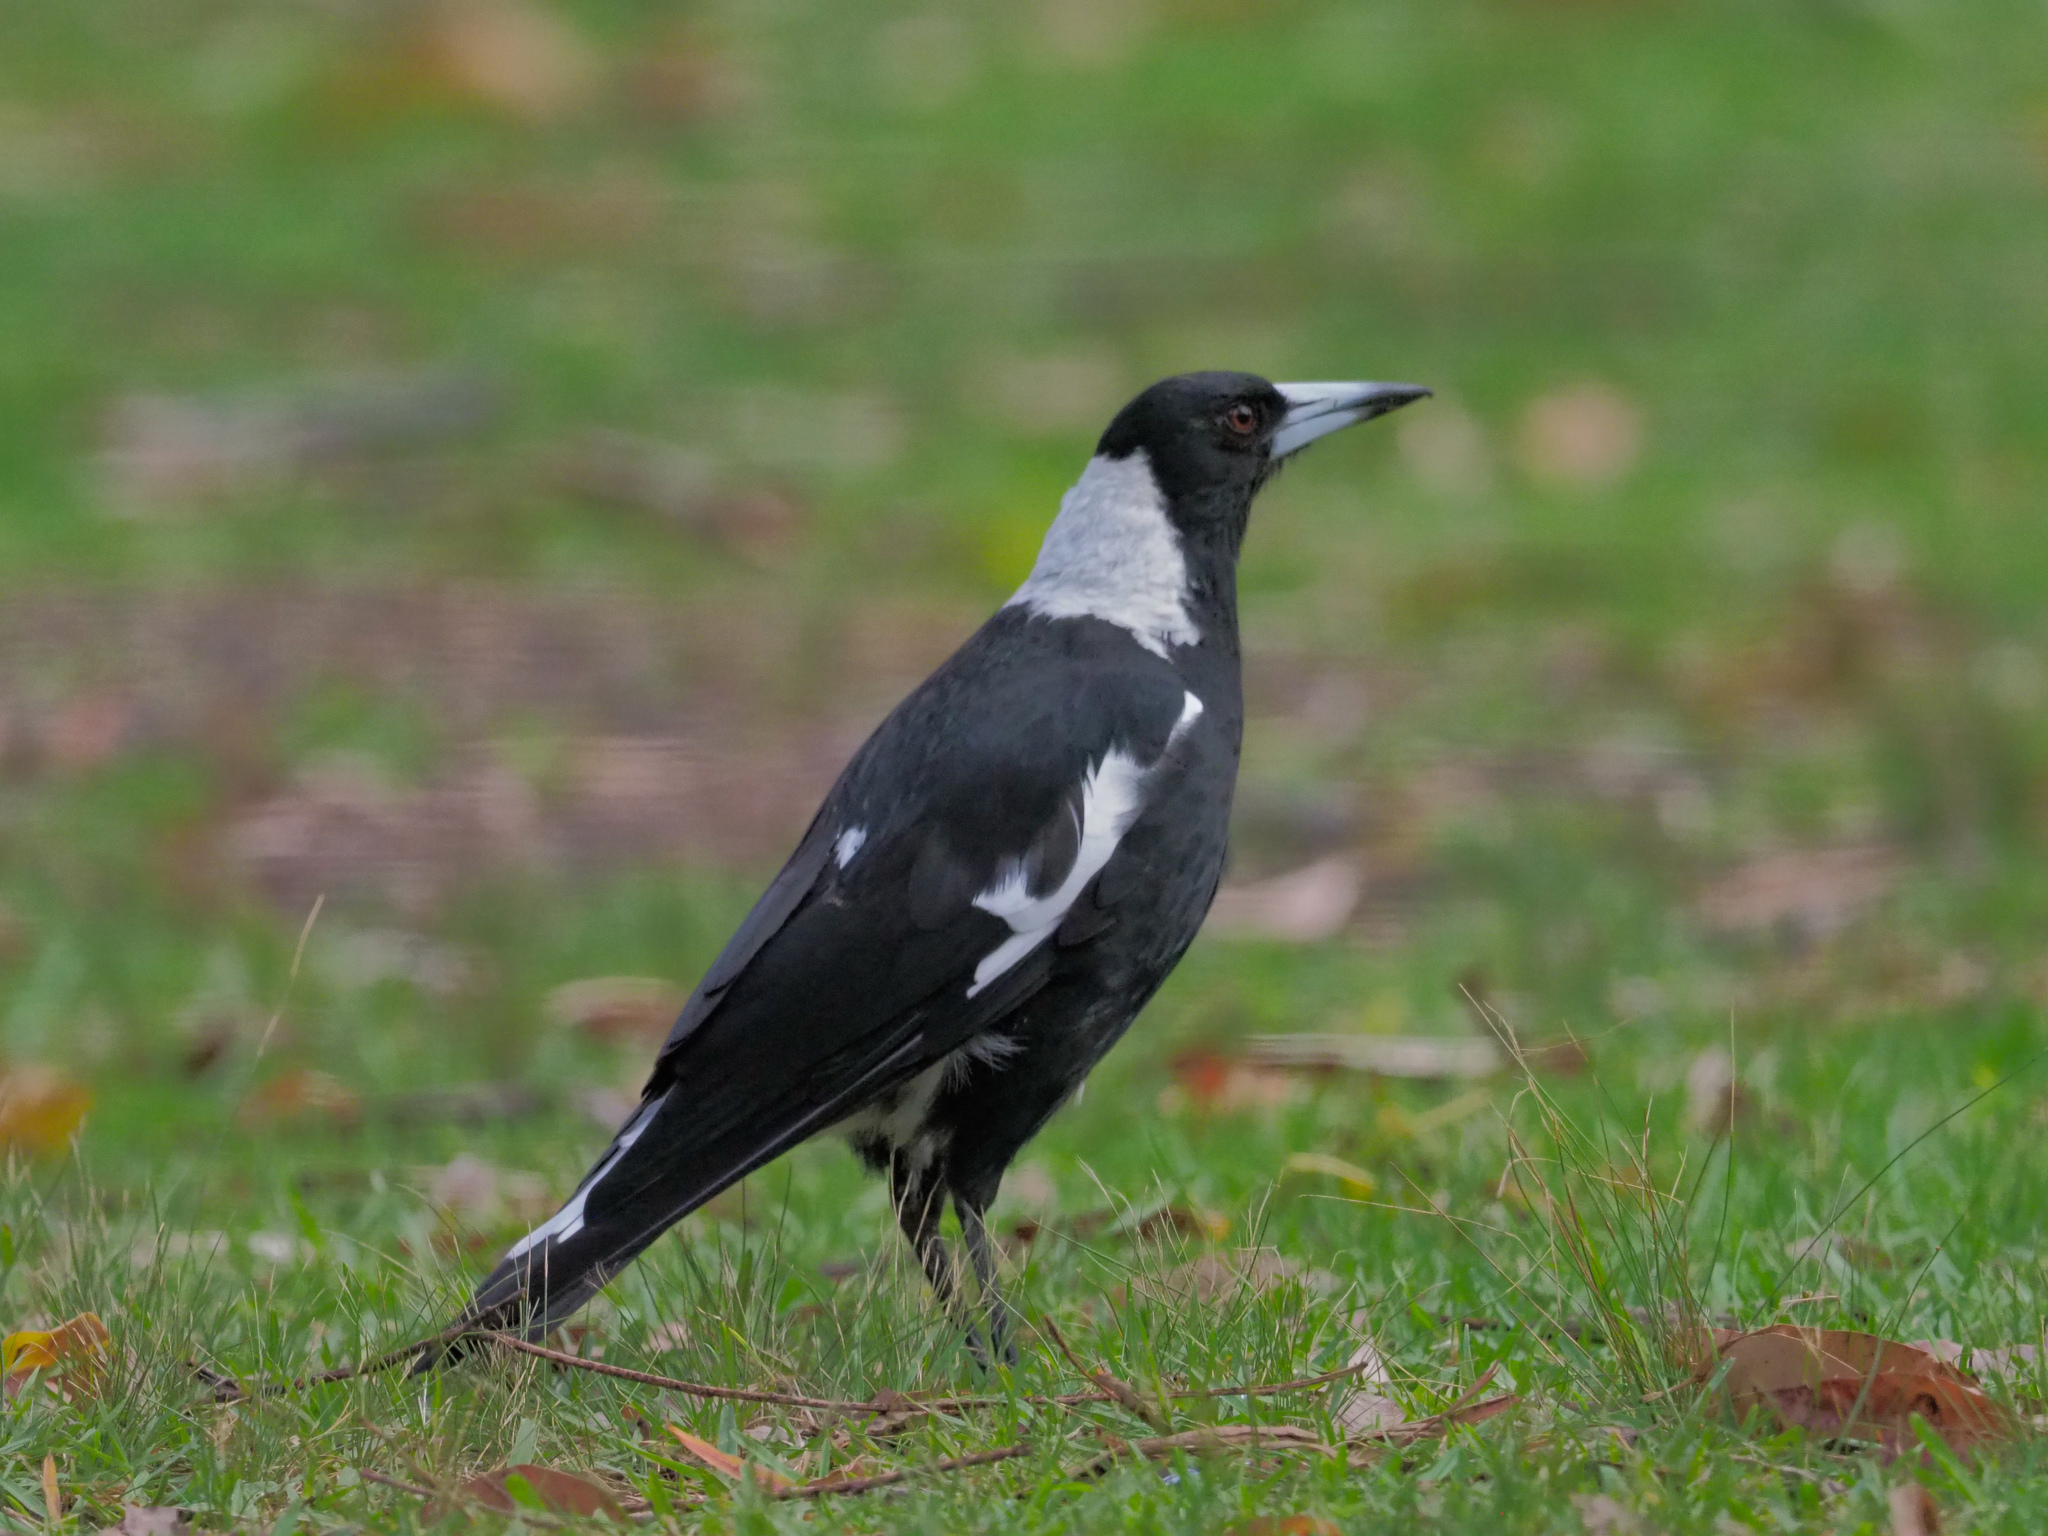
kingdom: Animalia
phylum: Chordata
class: Aves
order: Passeriformes
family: Cracticidae
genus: Gymnorhina
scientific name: Gymnorhina tibicen
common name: Australian magpie
